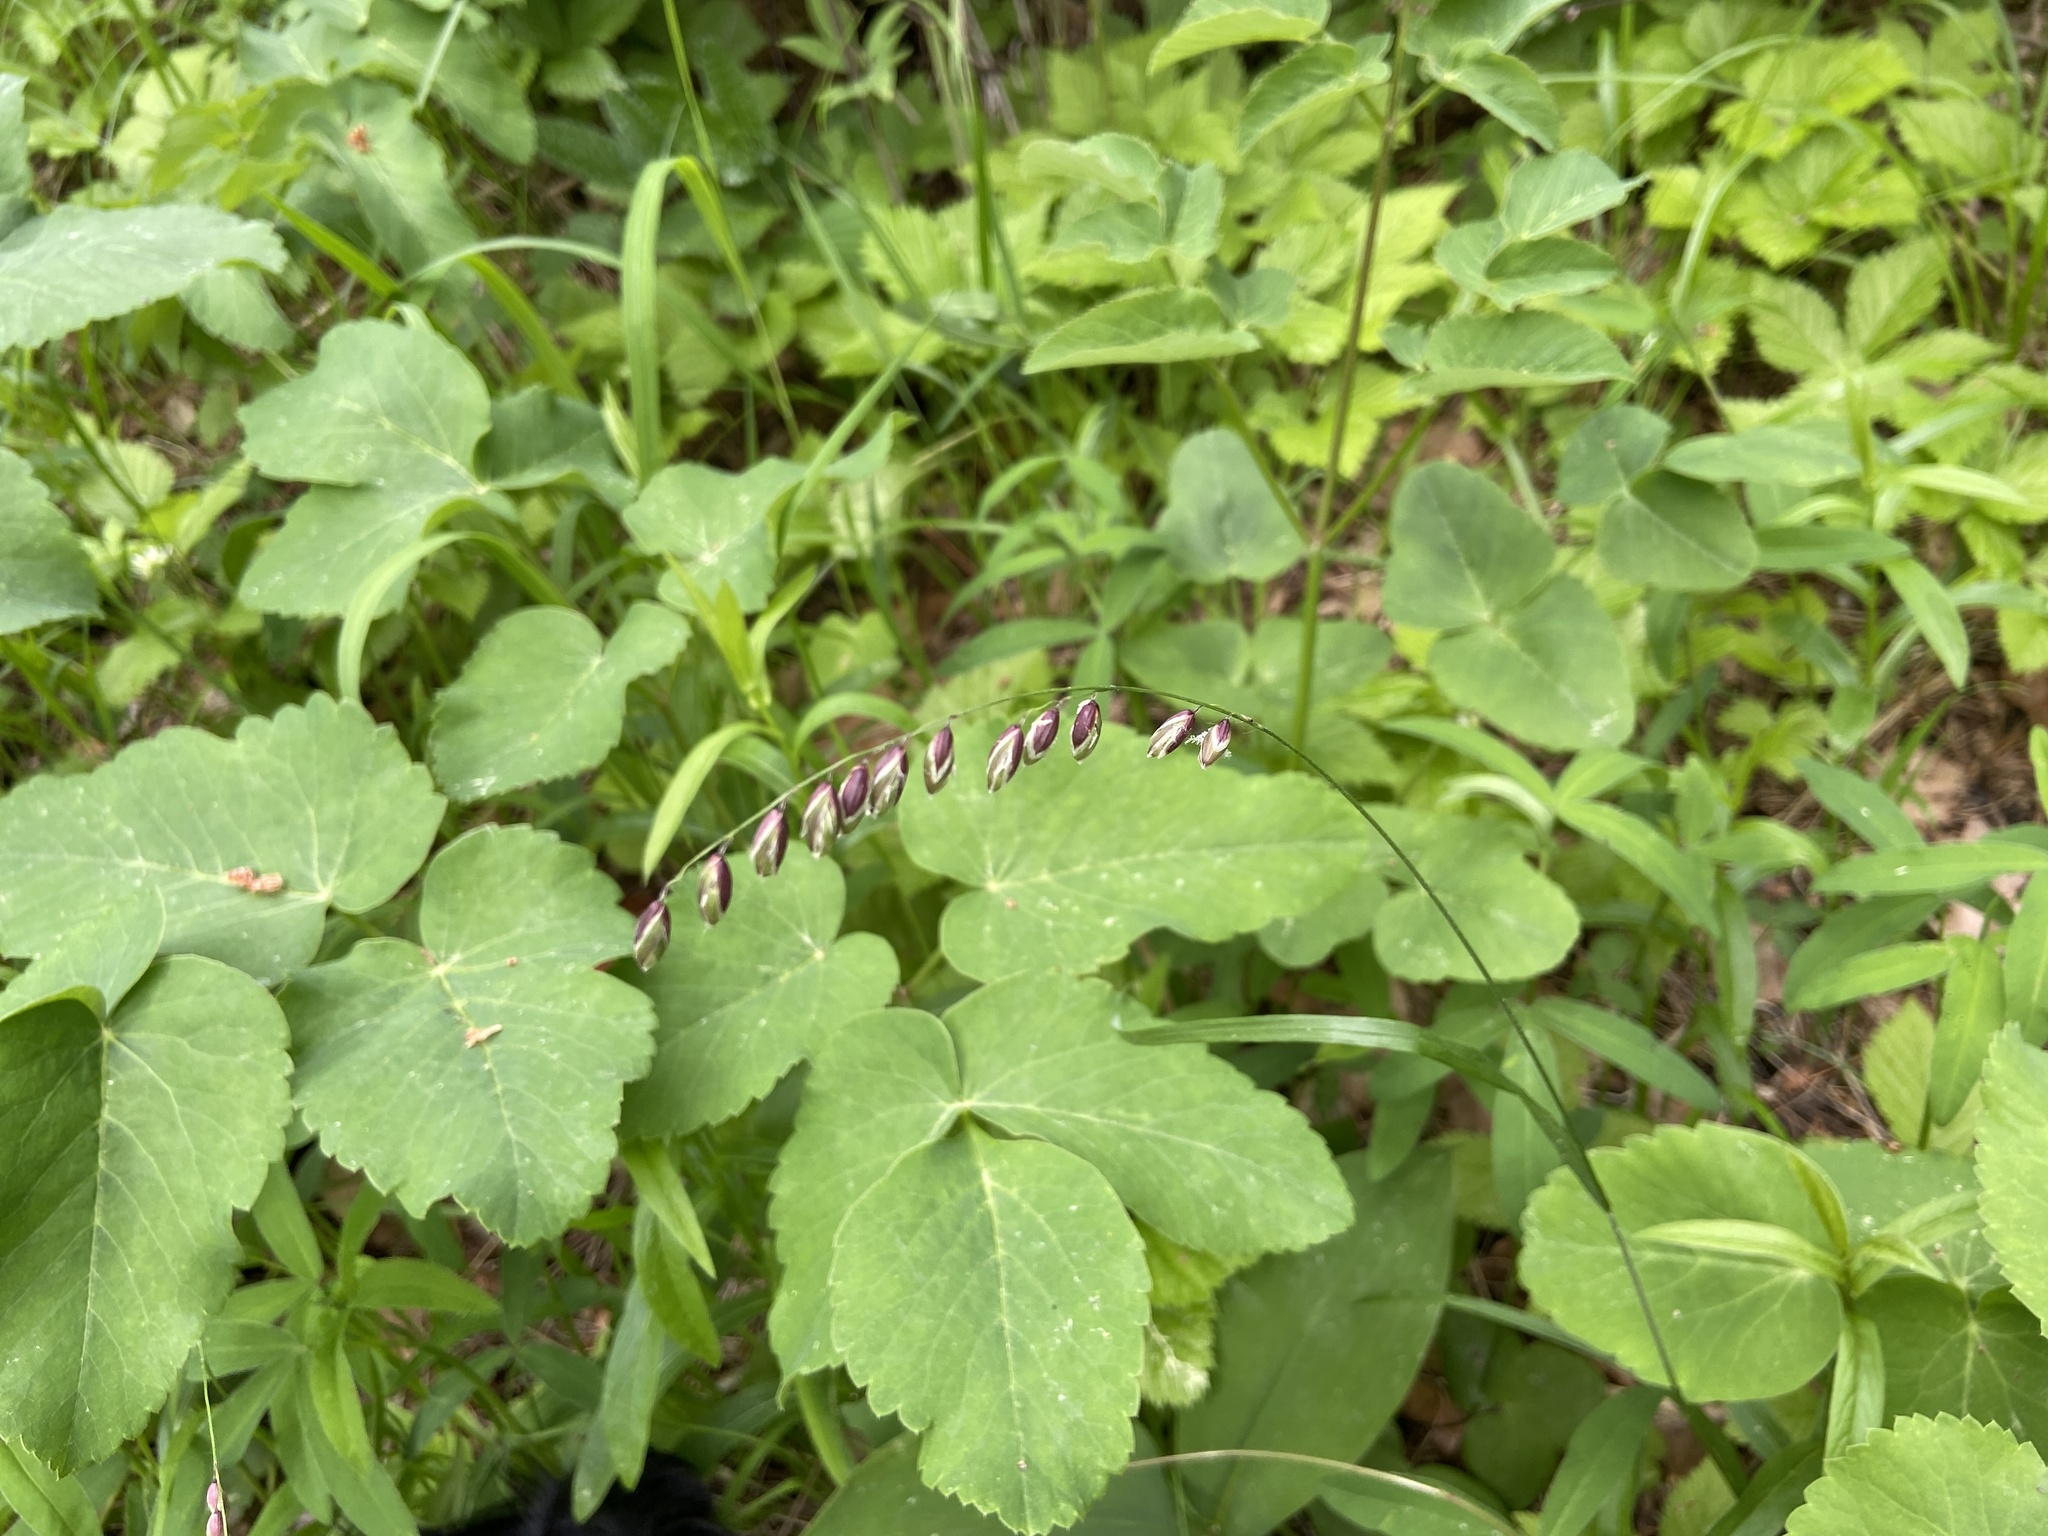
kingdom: Plantae
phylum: Tracheophyta
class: Liliopsida
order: Poales
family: Poaceae
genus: Melica
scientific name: Melica nutans
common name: Mountain melick
